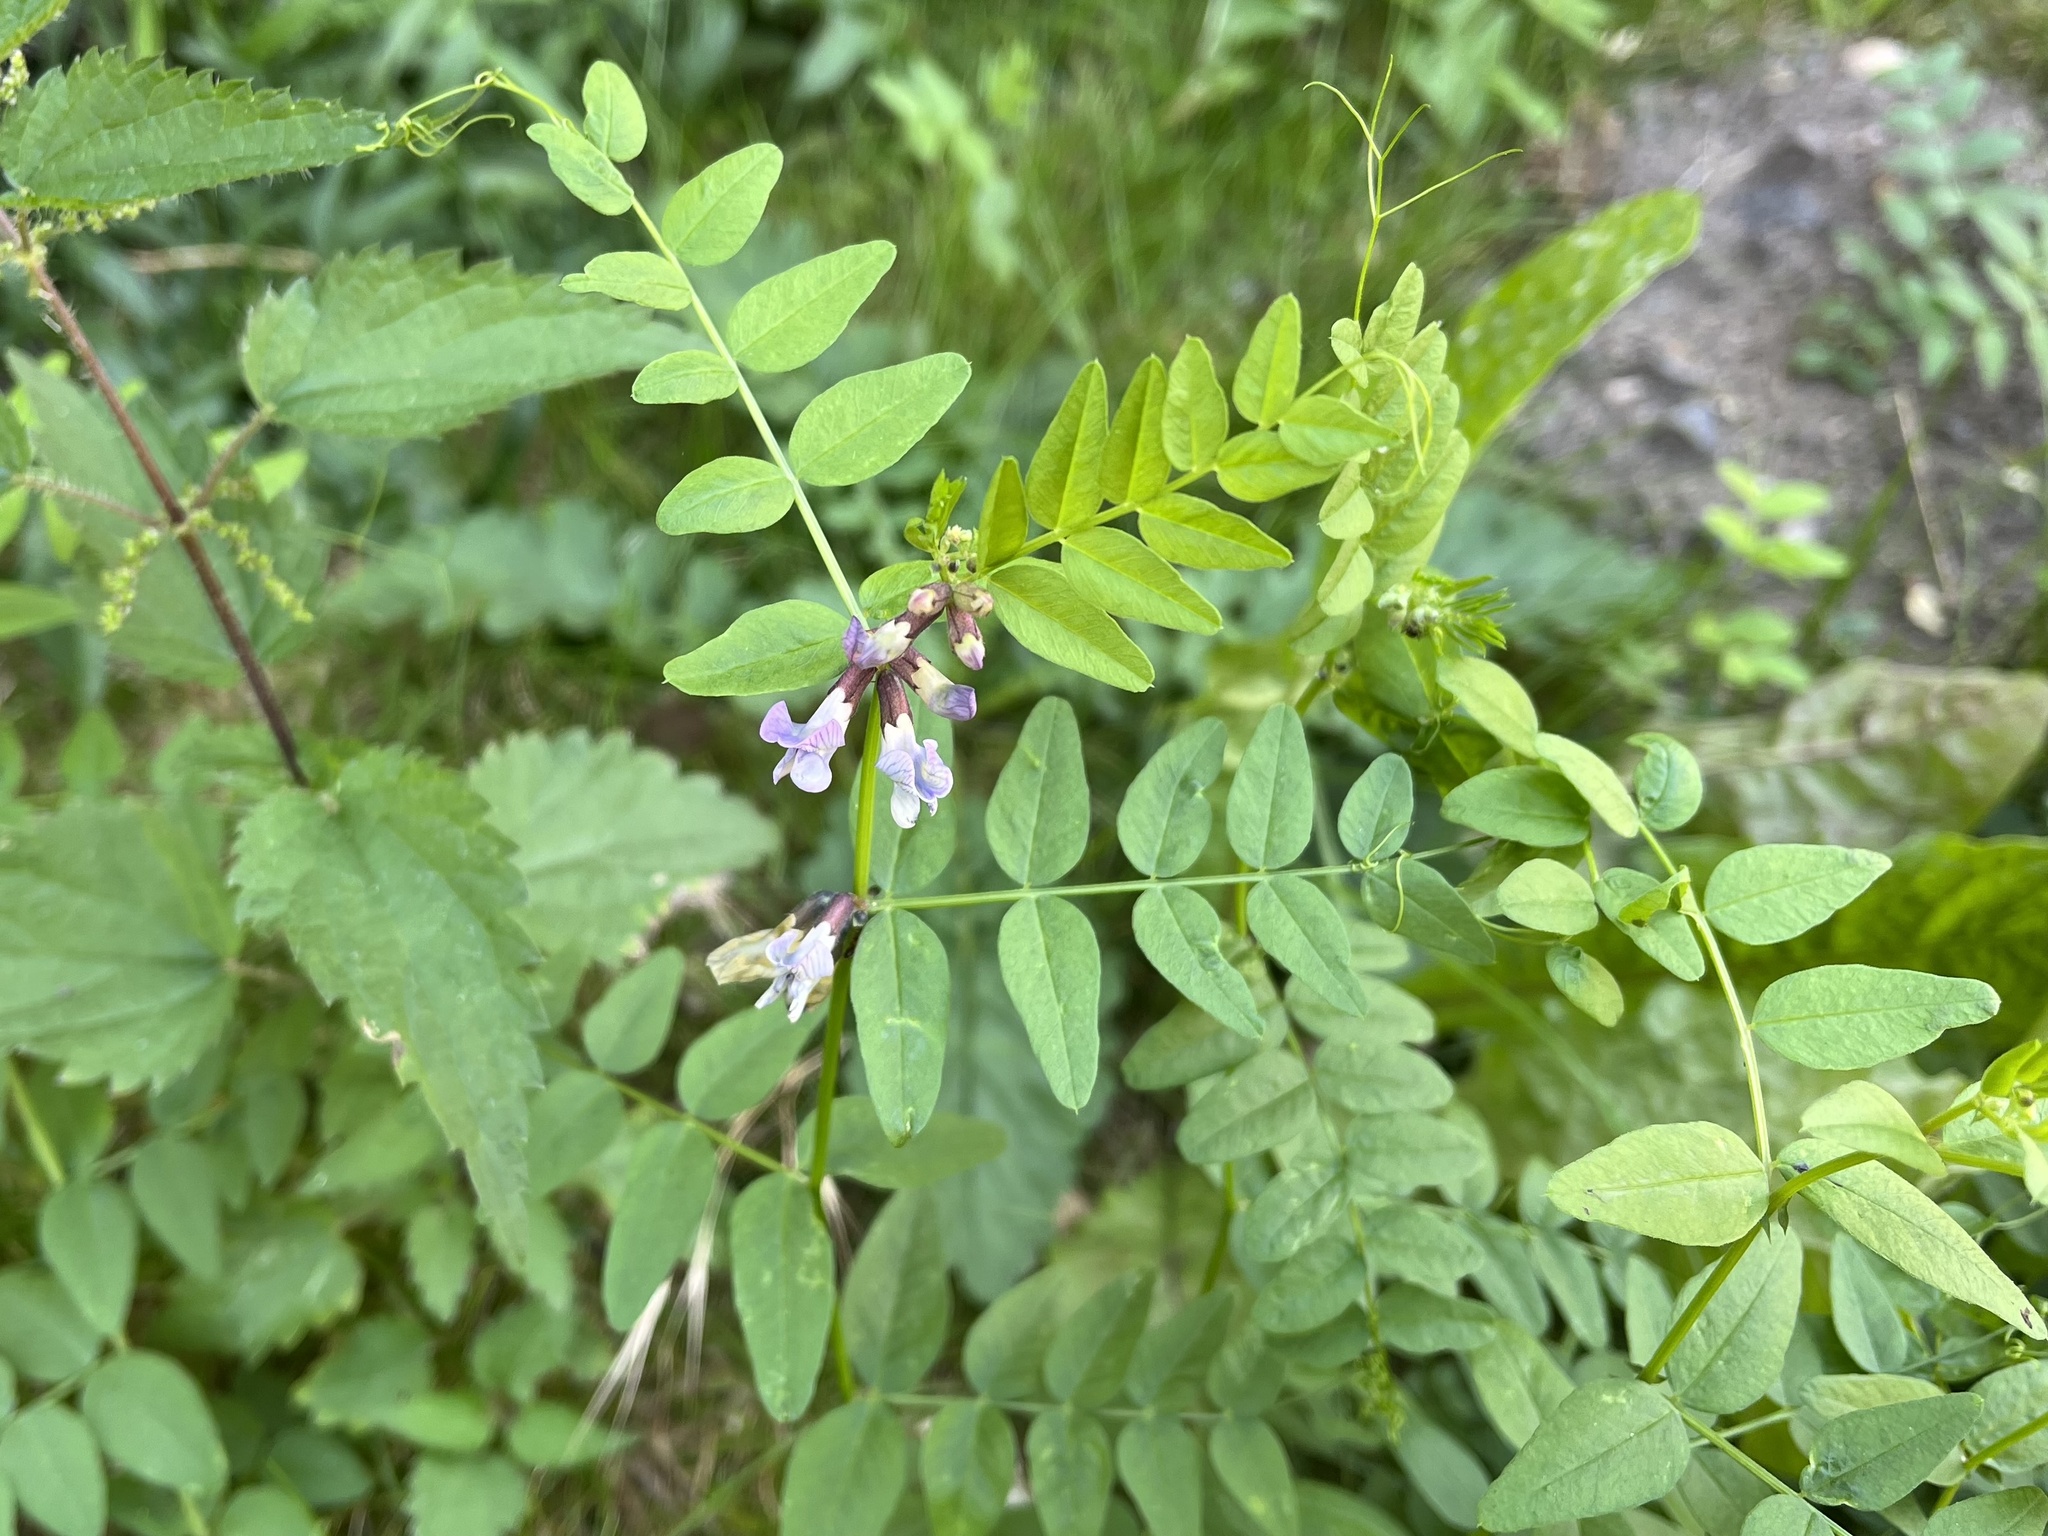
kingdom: Plantae
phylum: Tracheophyta
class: Magnoliopsida
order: Fabales
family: Fabaceae
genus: Vicia
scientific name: Vicia sepium
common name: Bush vetch
